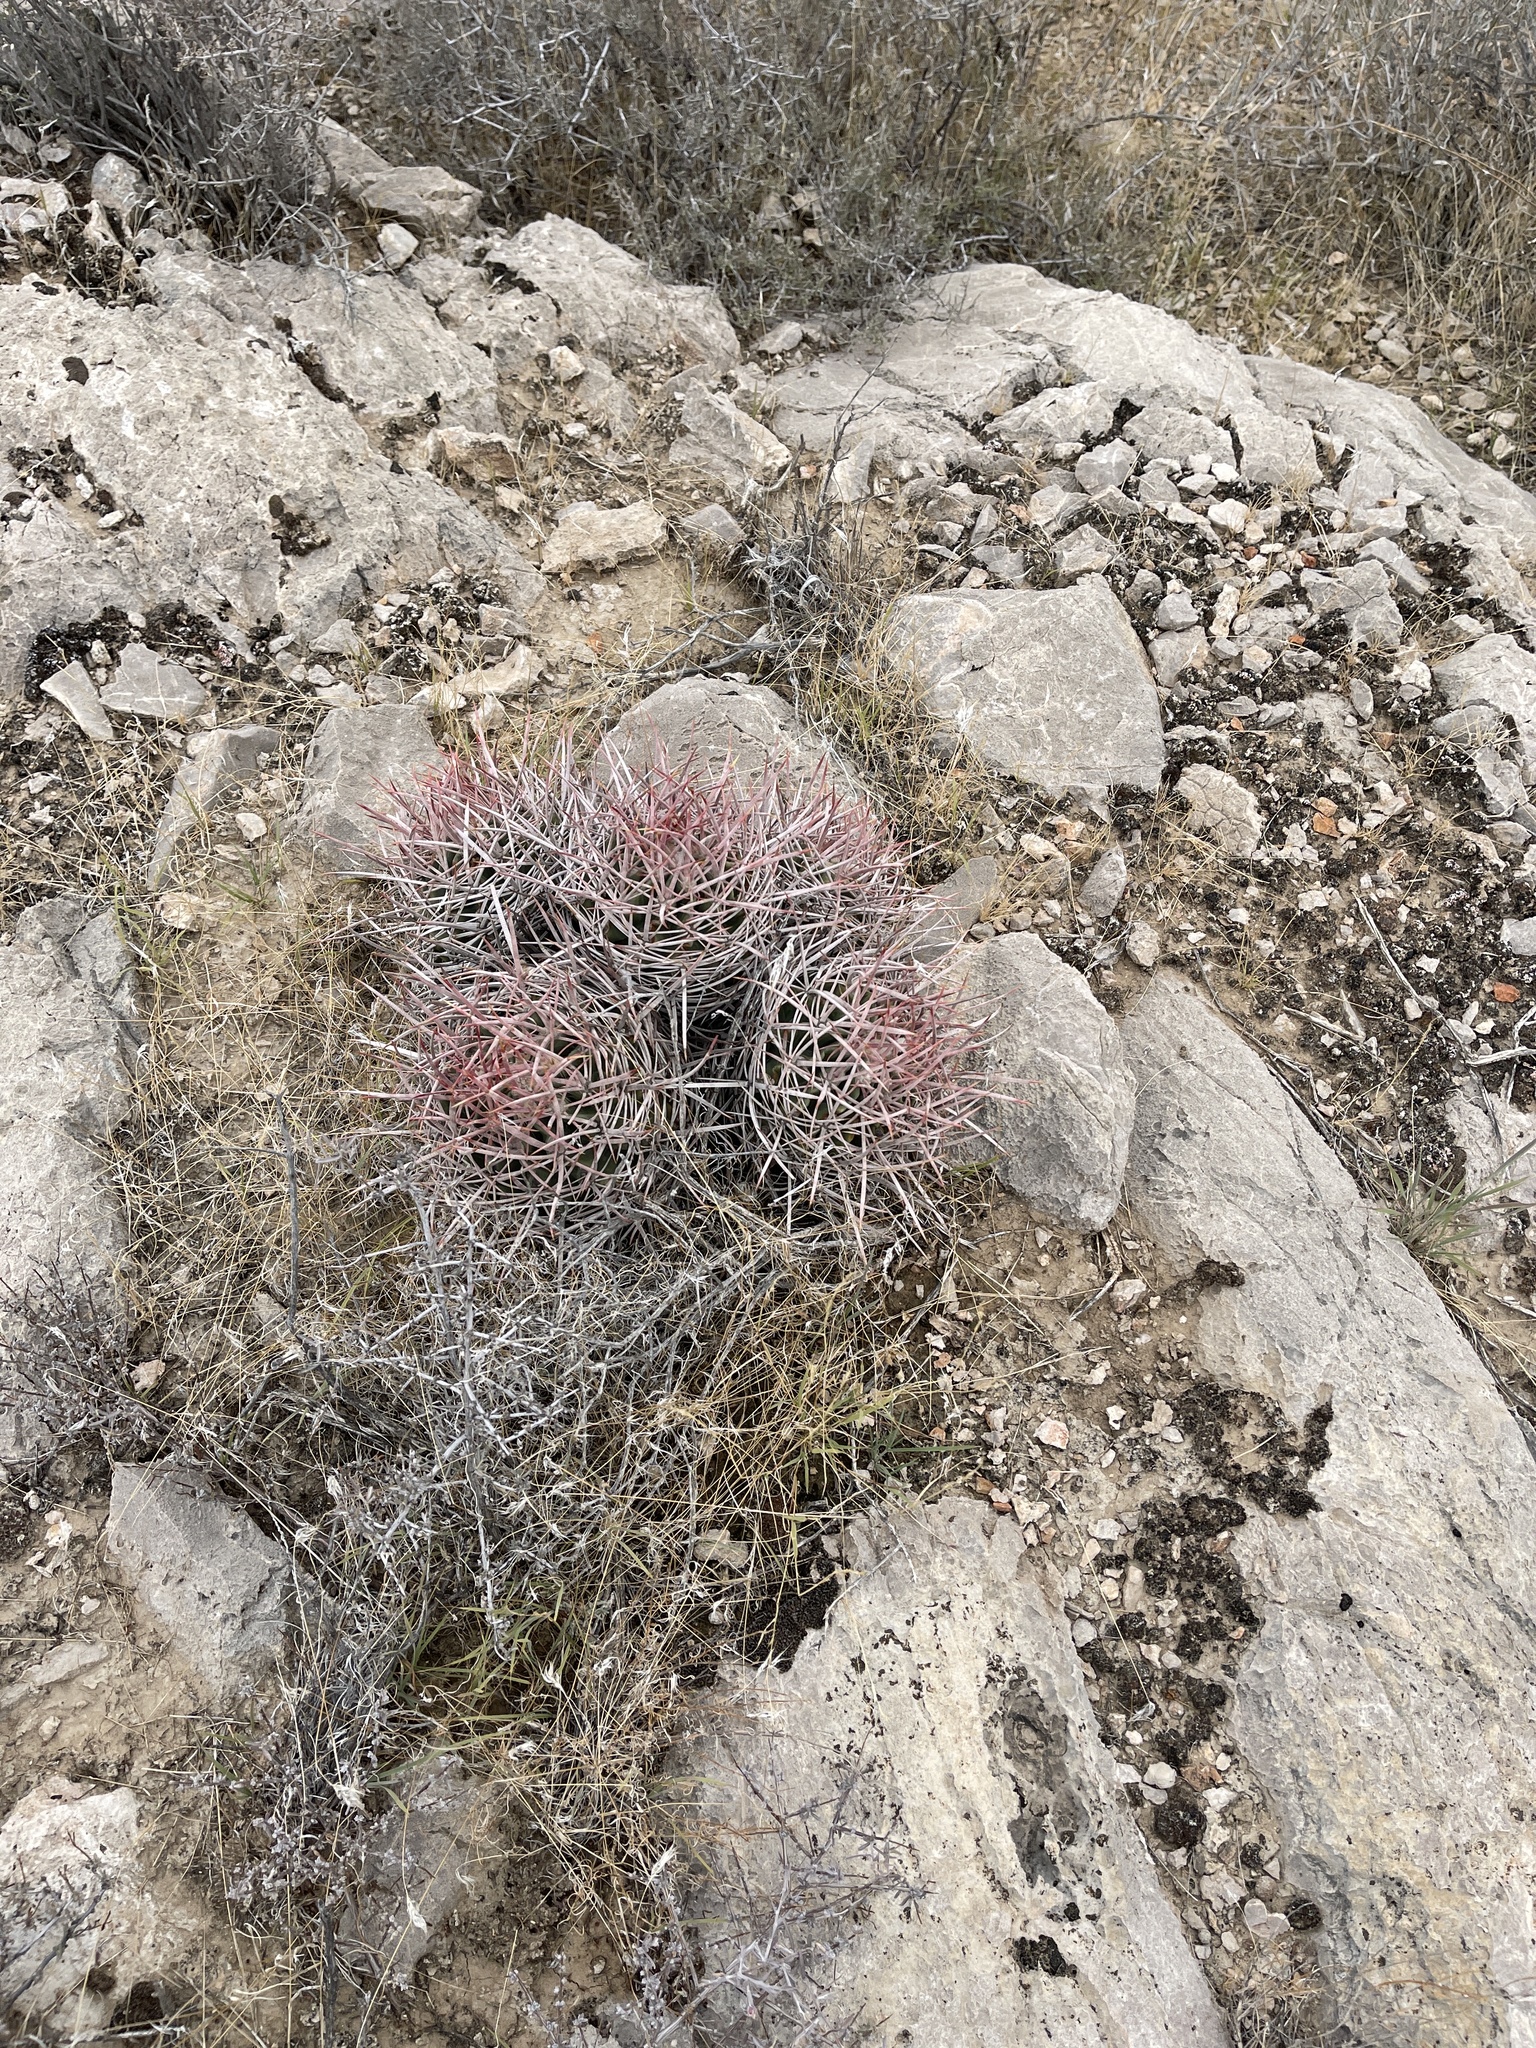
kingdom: Plantae
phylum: Tracheophyta
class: Magnoliopsida
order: Caryophyllales
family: Cactaceae
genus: Echinocactus
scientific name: Echinocactus polycephalus
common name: Cottontop cactus
